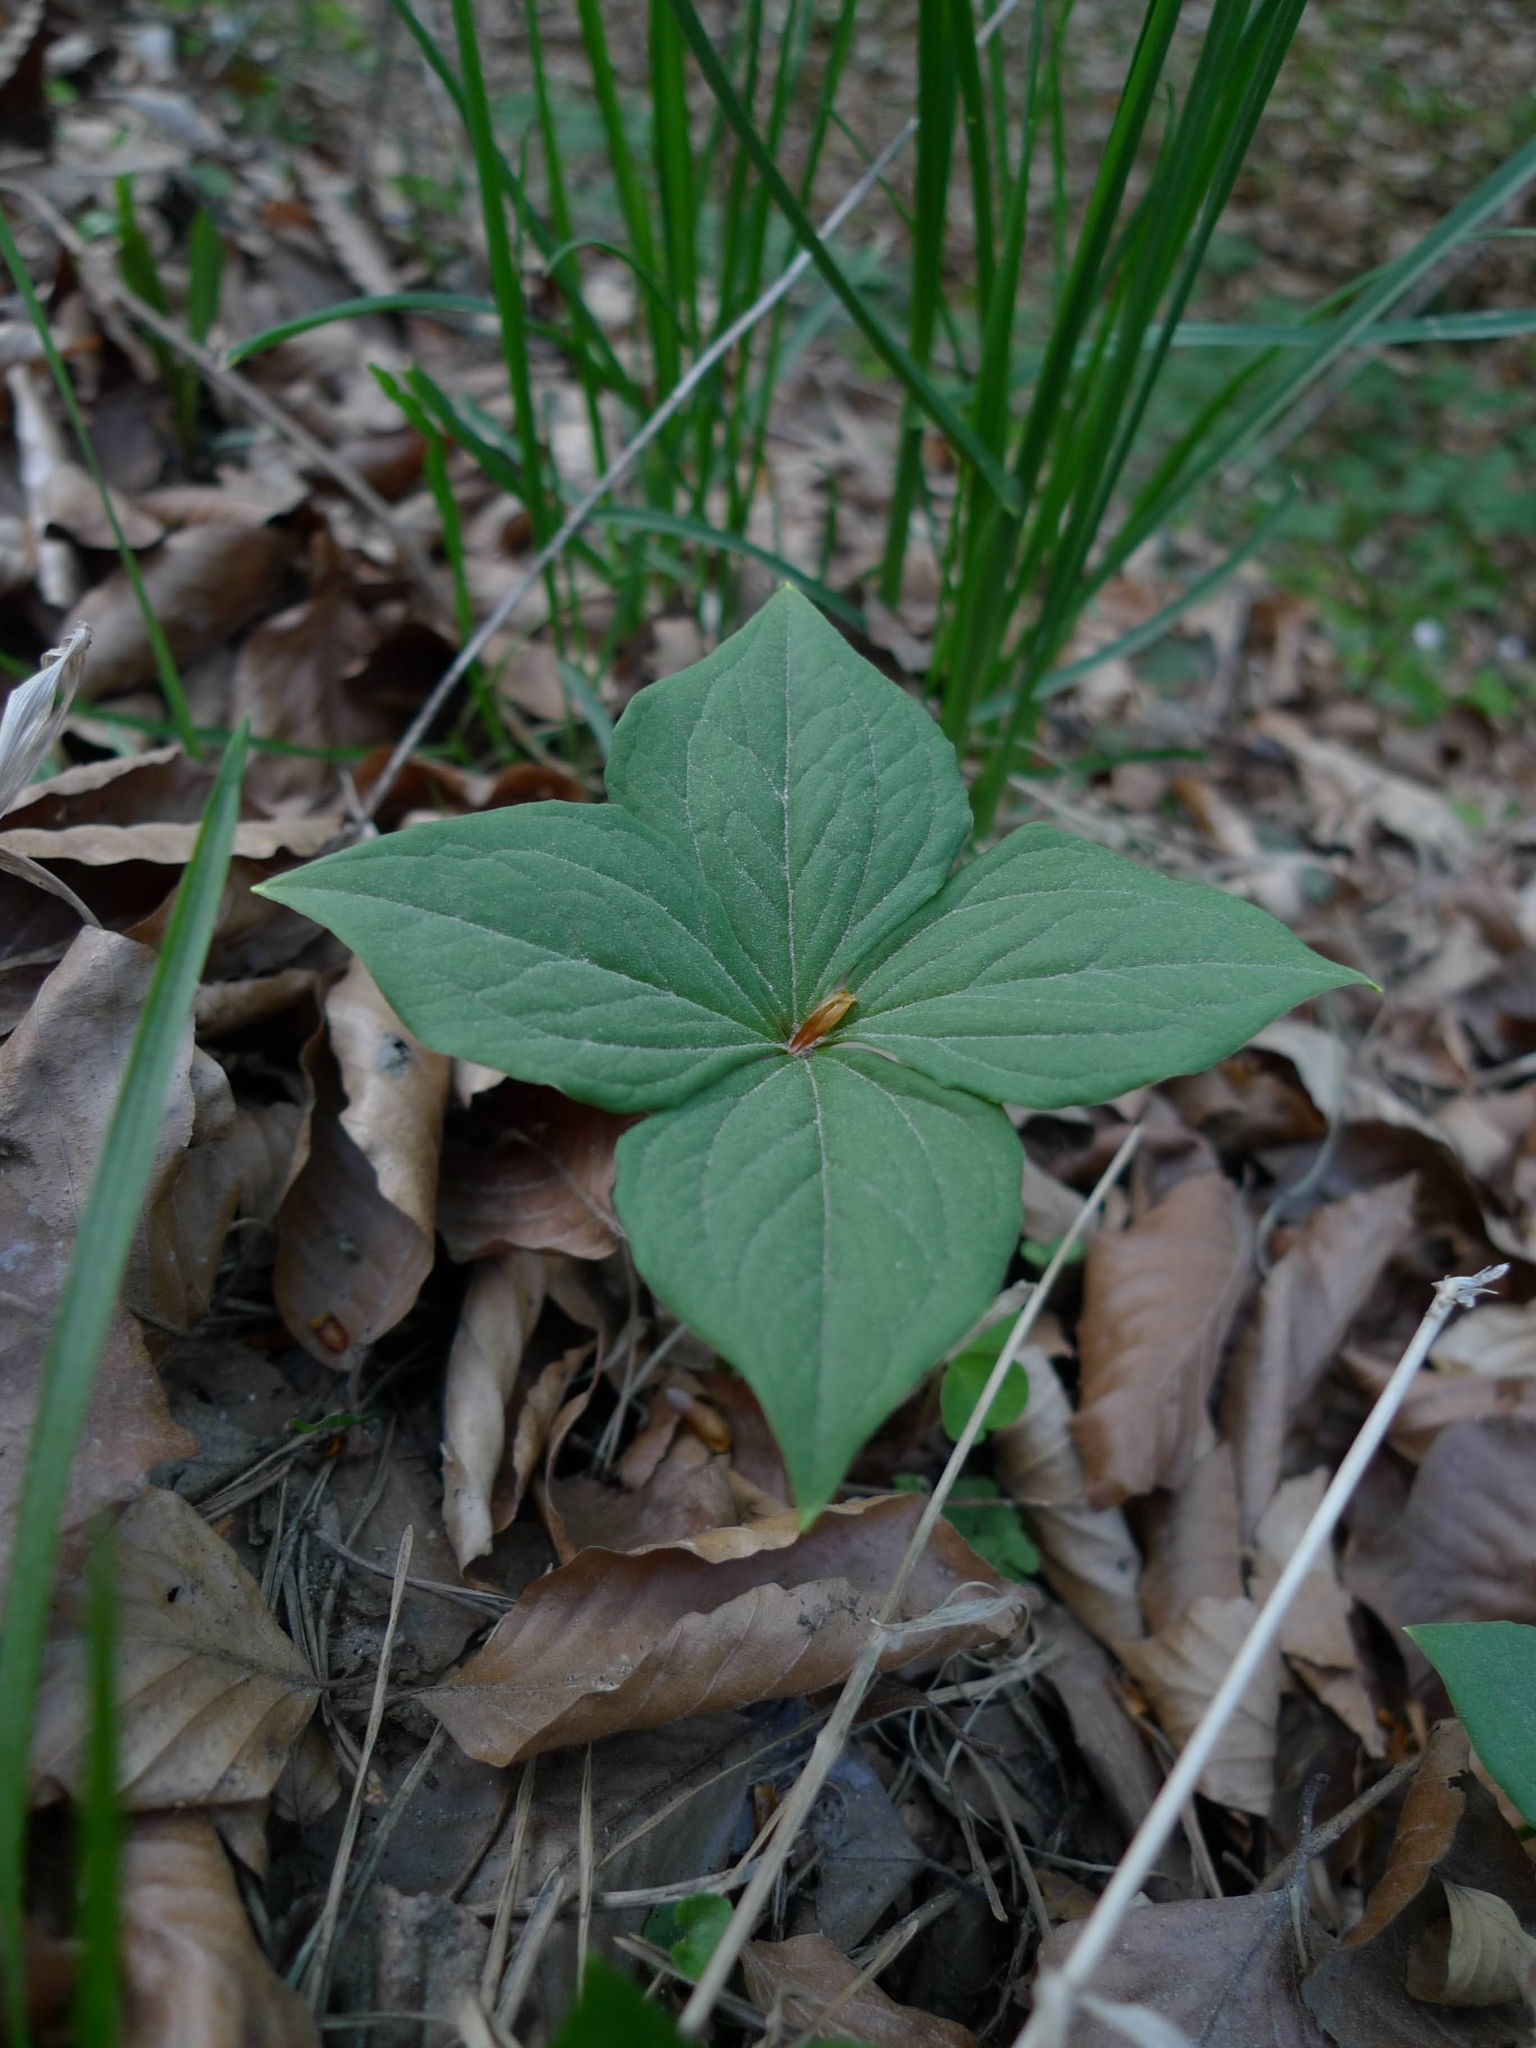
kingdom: Plantae
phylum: Tracheophyta
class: Liliopsida
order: Liliales
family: Melanthiaceae
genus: Paris
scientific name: Paris quadrifolia
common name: Herb-paris
